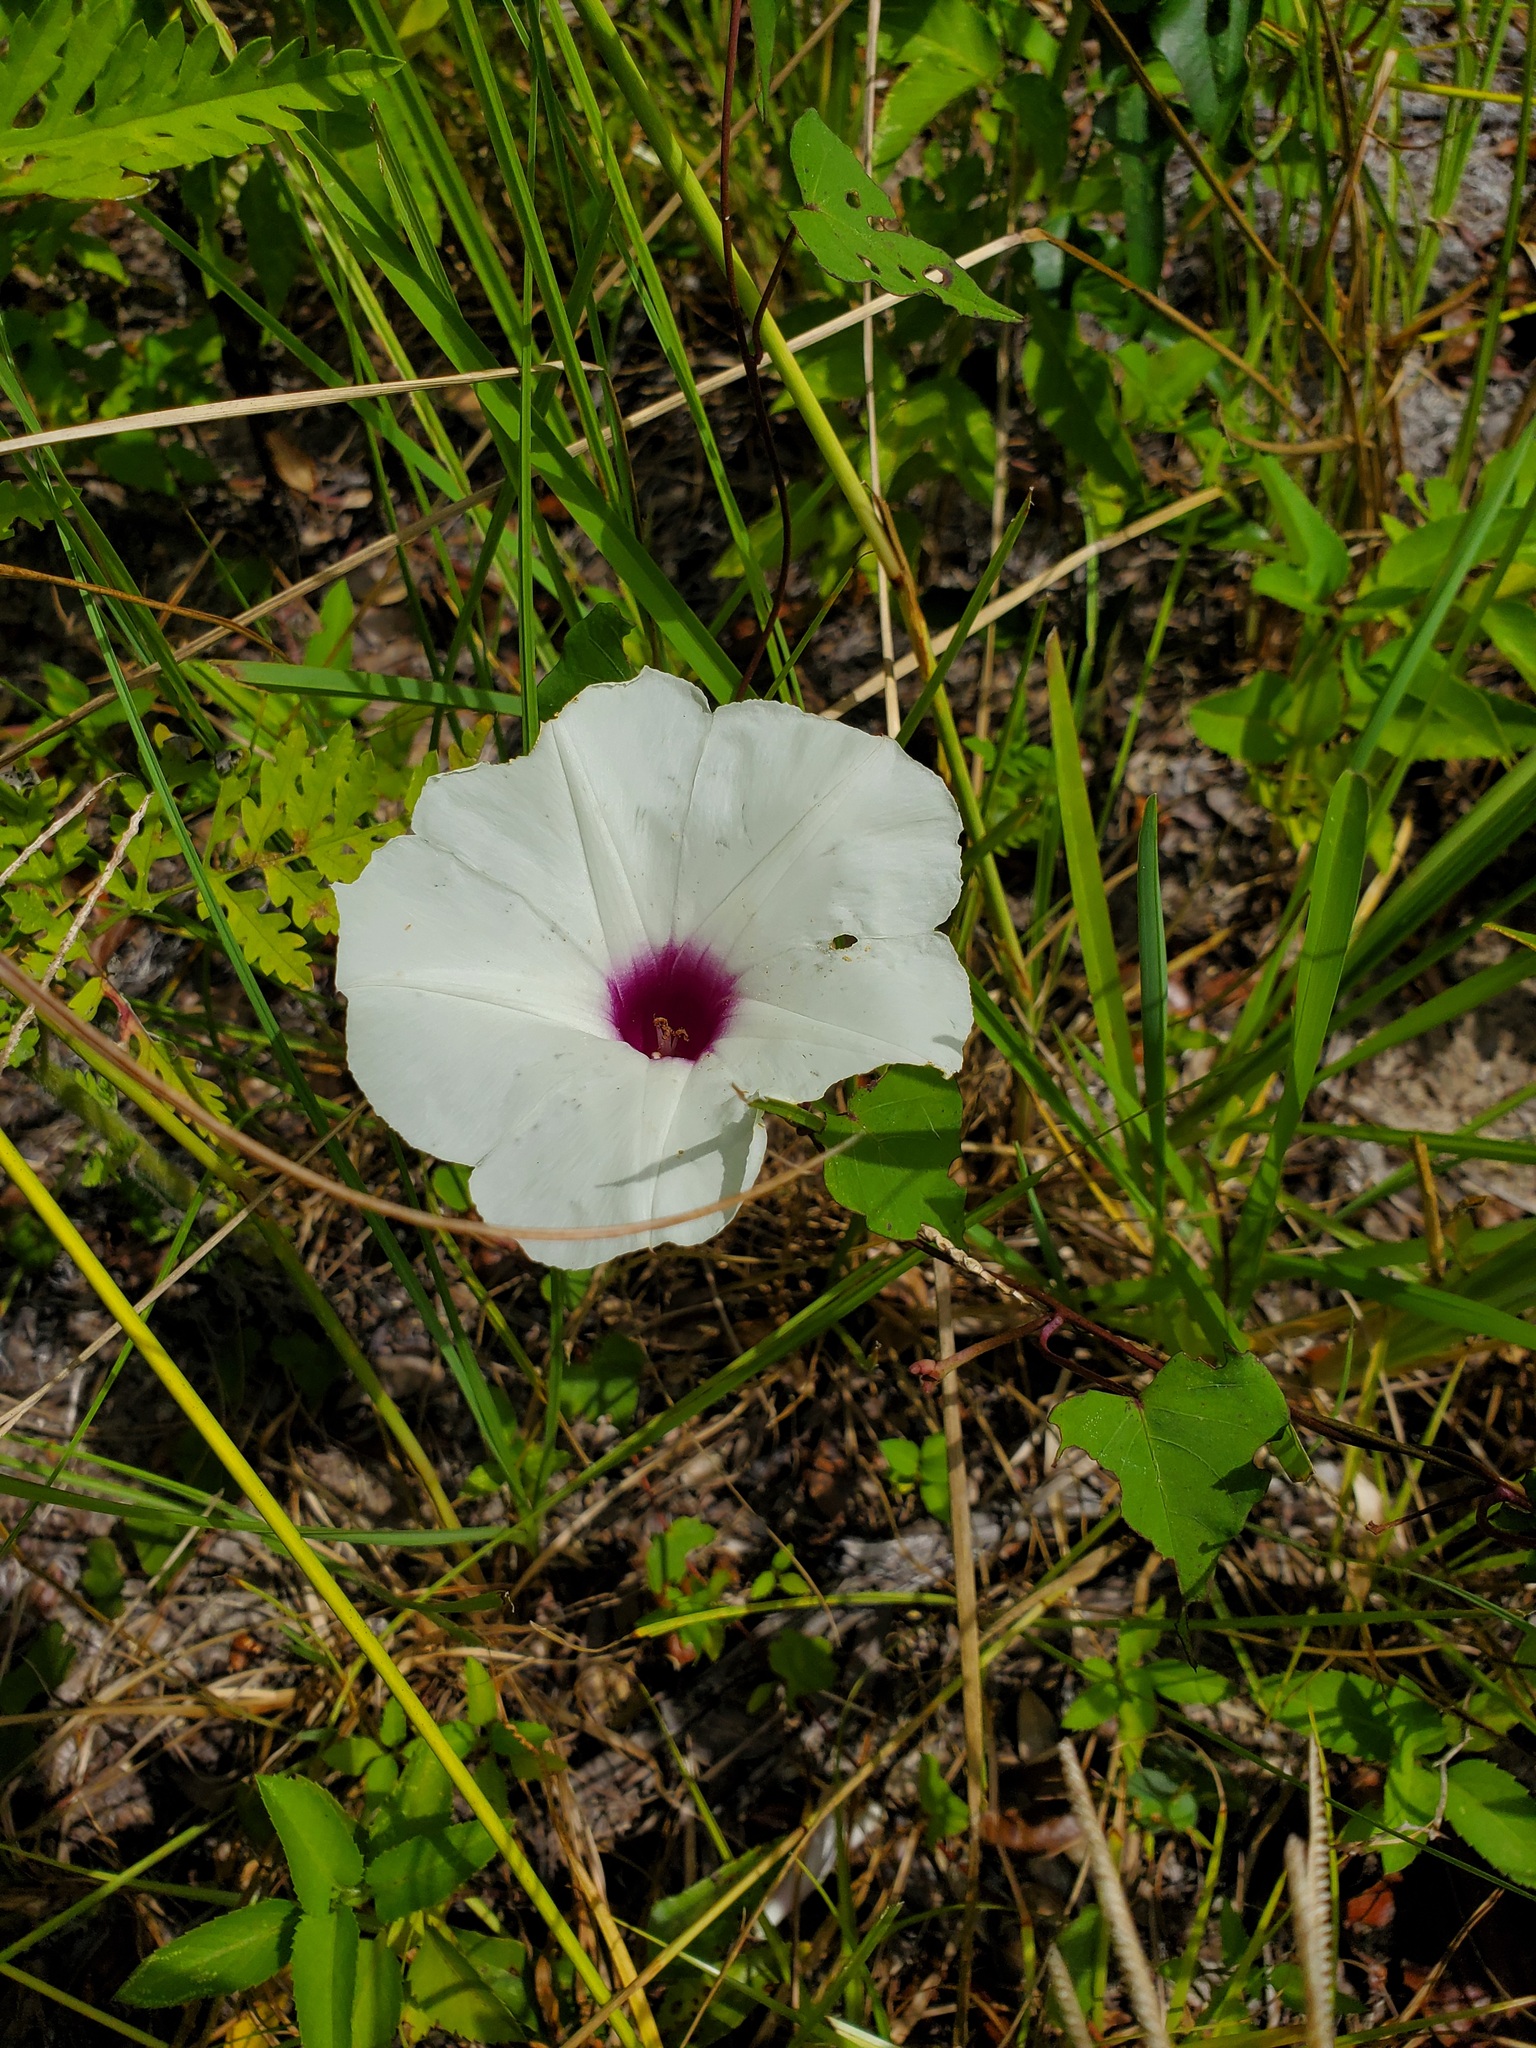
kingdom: Plantae
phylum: Tracheophyta
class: Magnoliopsida
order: Solanales
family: Convolvulaceae
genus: Ipomoea
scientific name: Ipomoea pandurata
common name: Man-of-the-earth
